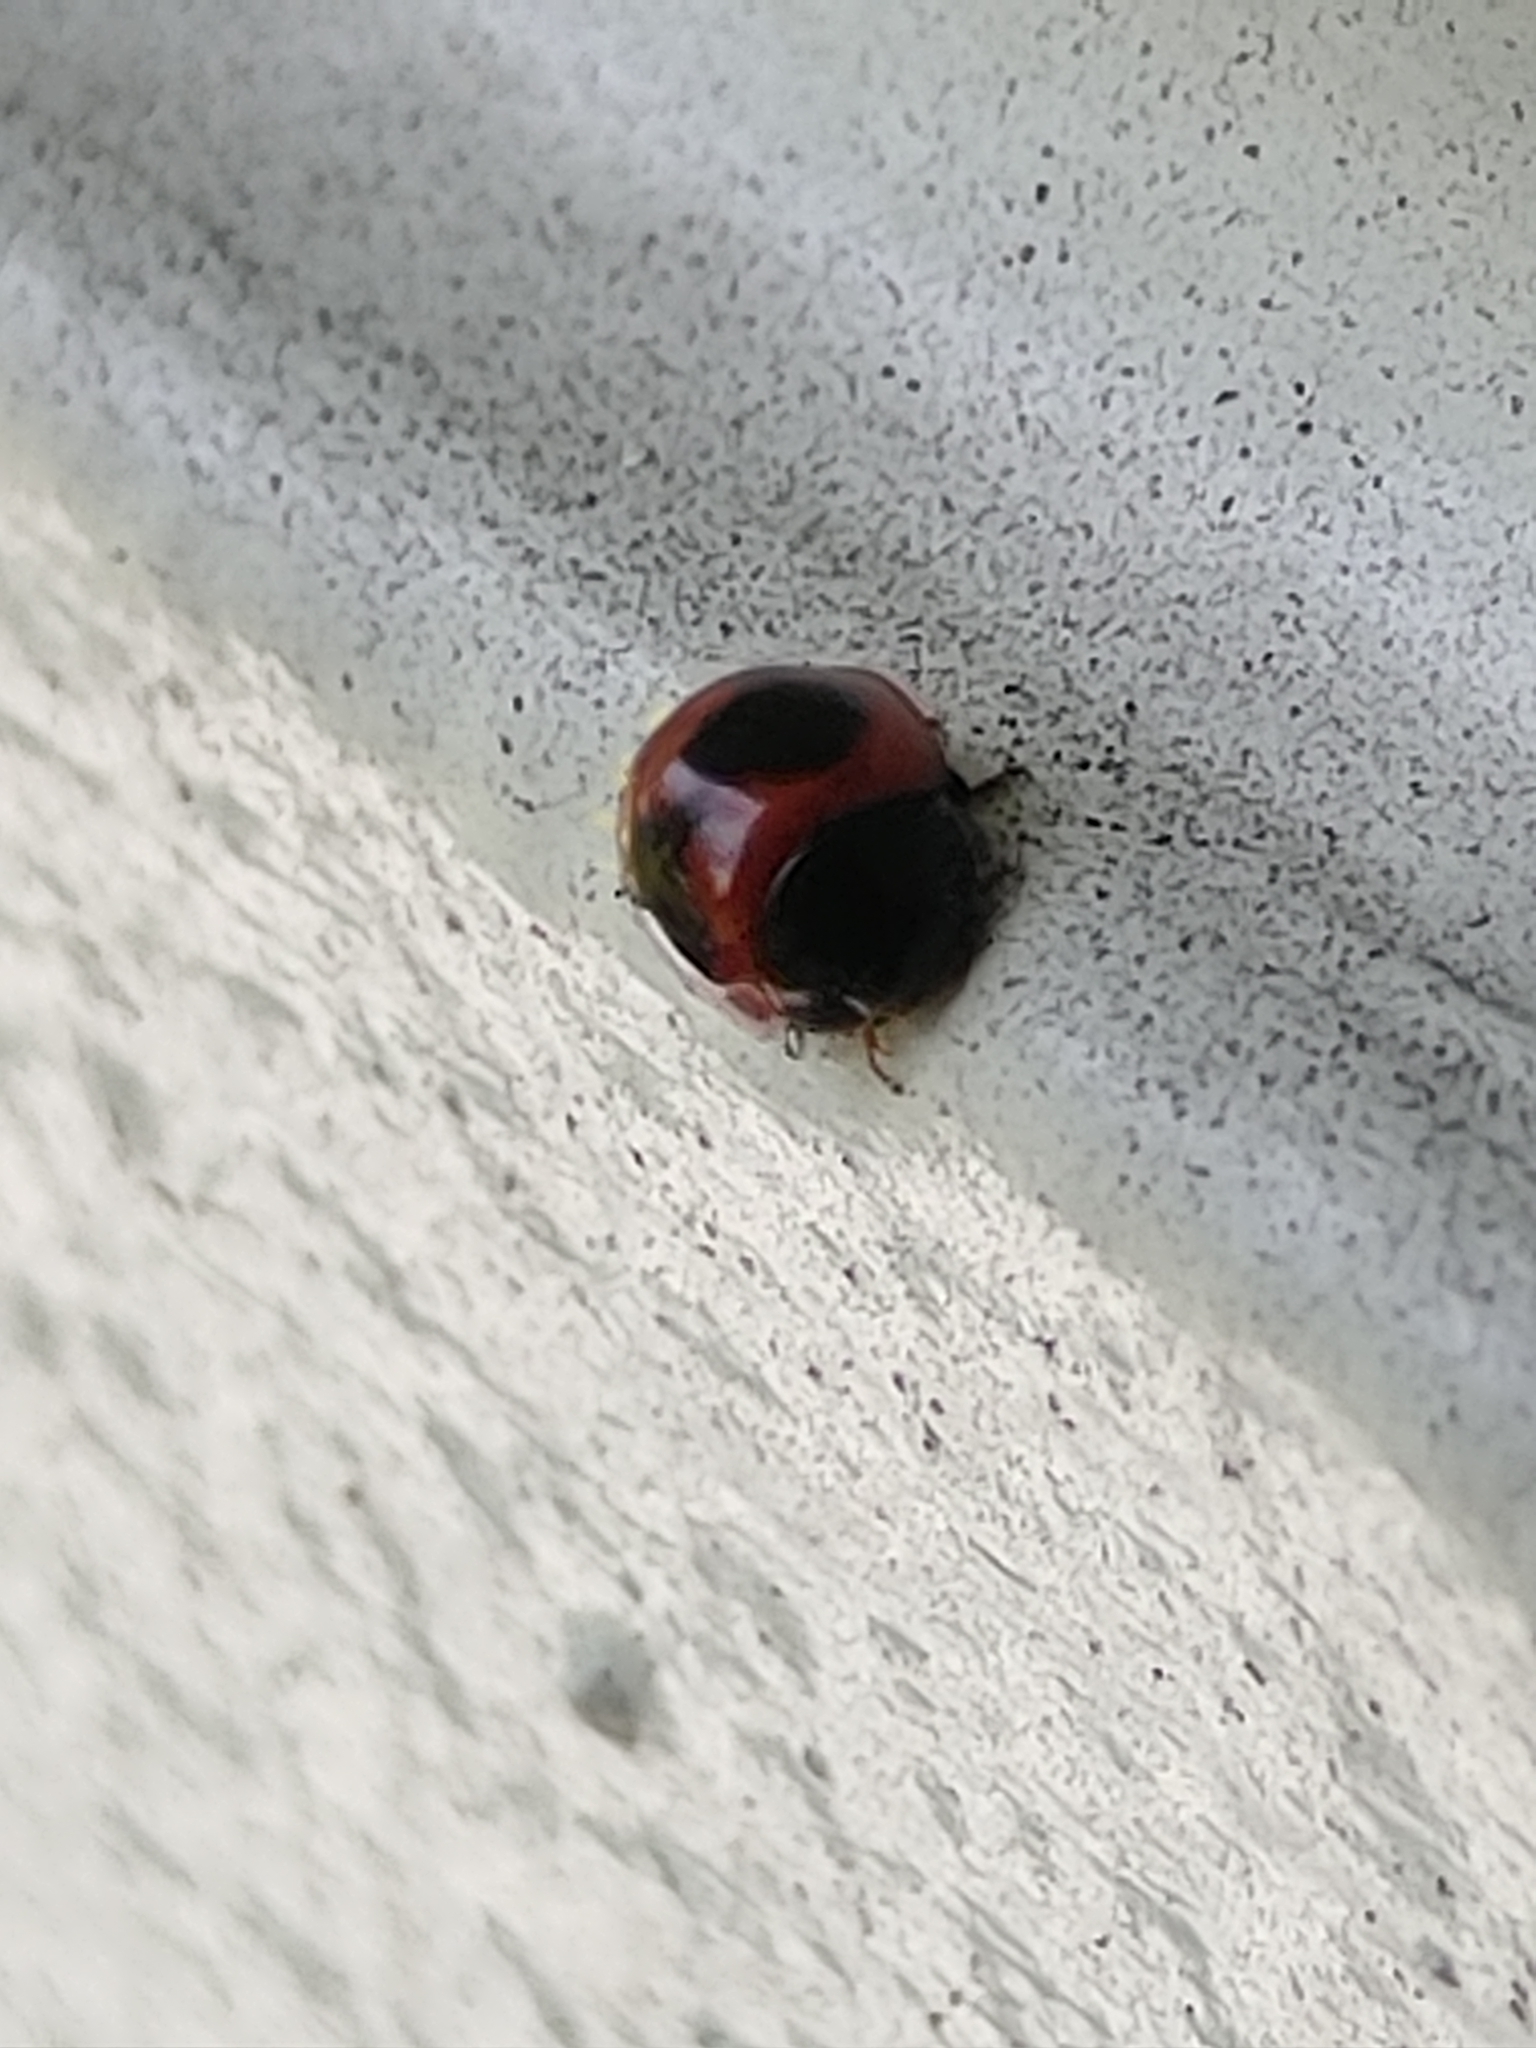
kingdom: Animalia
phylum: Arthropoda
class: Insecta
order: Coleoptera
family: Coccinellidae
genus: Exochomus
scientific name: Exochomus childreni
